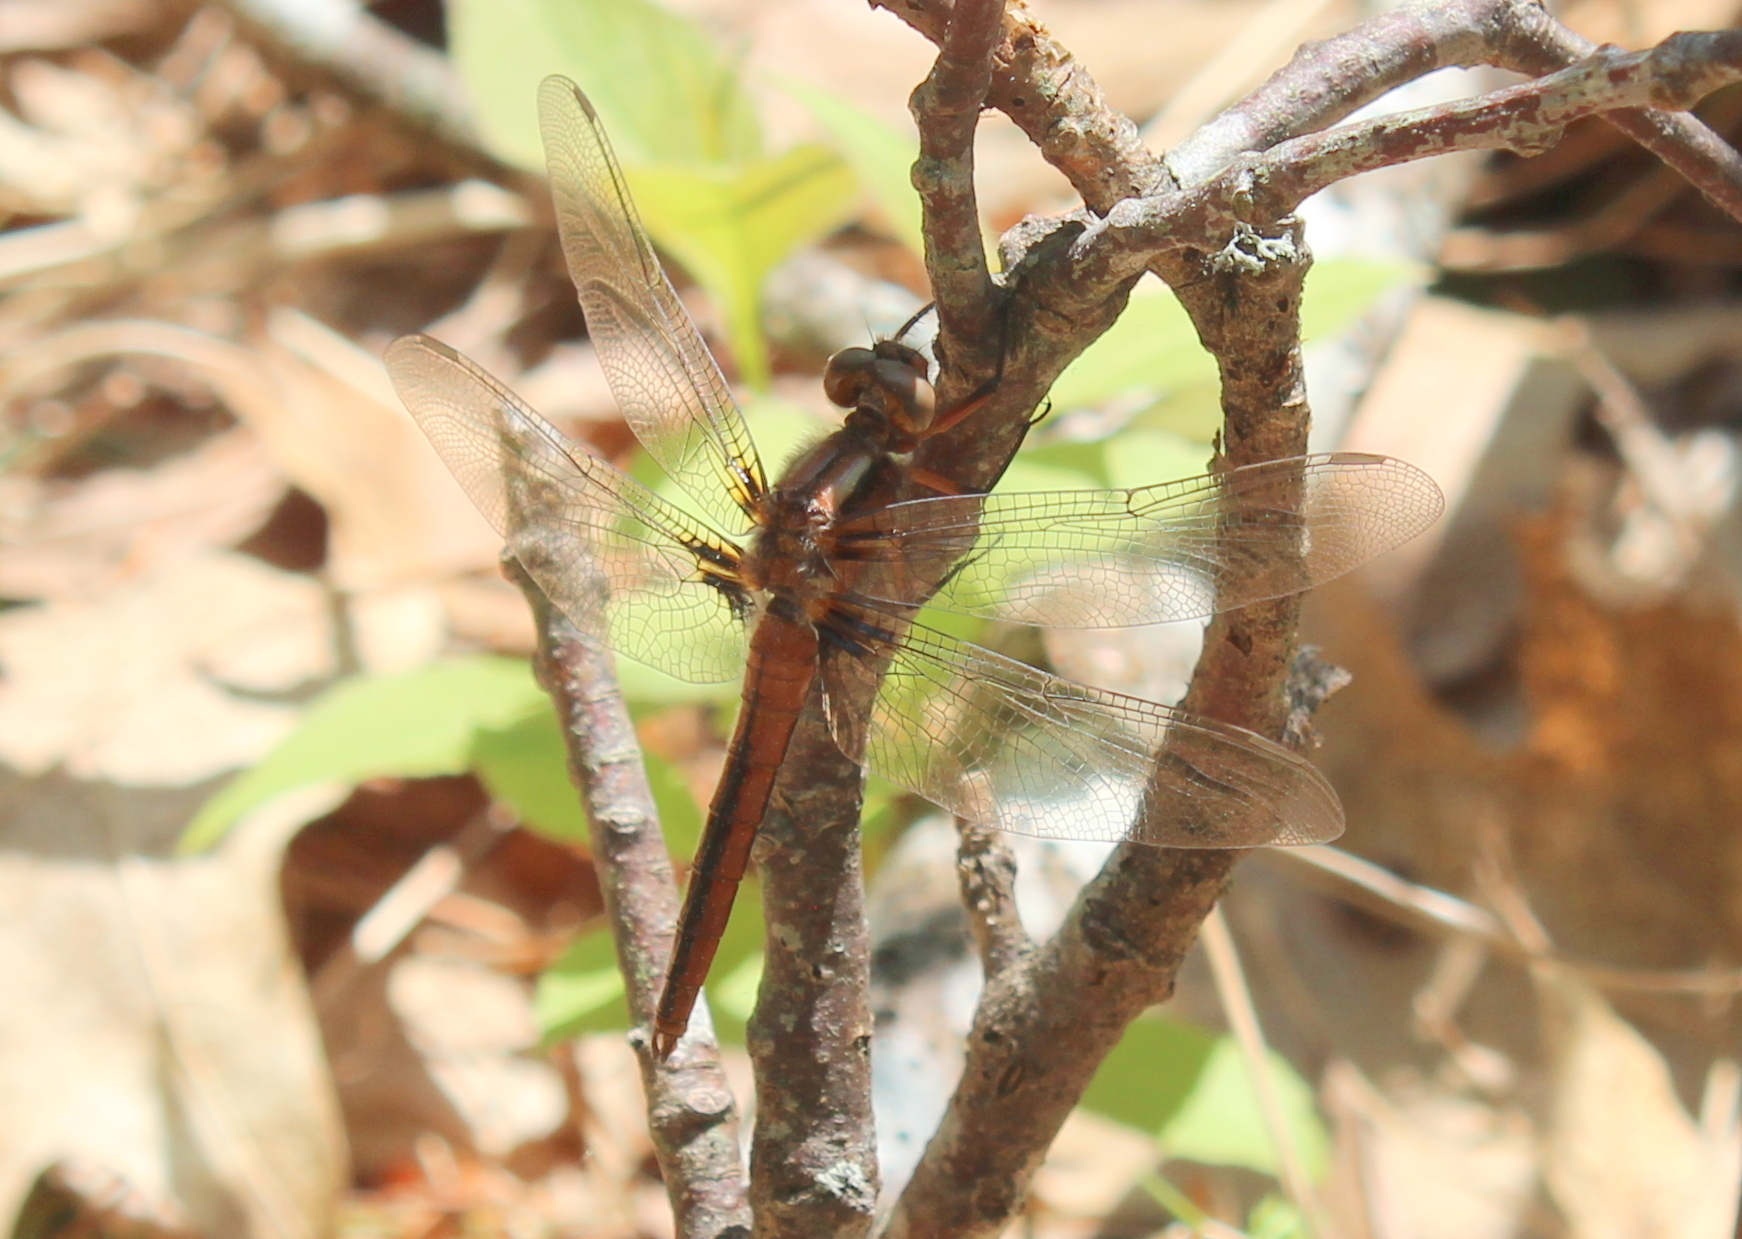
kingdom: Animalia
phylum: Arthropoda
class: Insecta
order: Odonata
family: Libellulidae
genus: Ladona
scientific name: Ladona julia
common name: Chalk-fronted corporal
